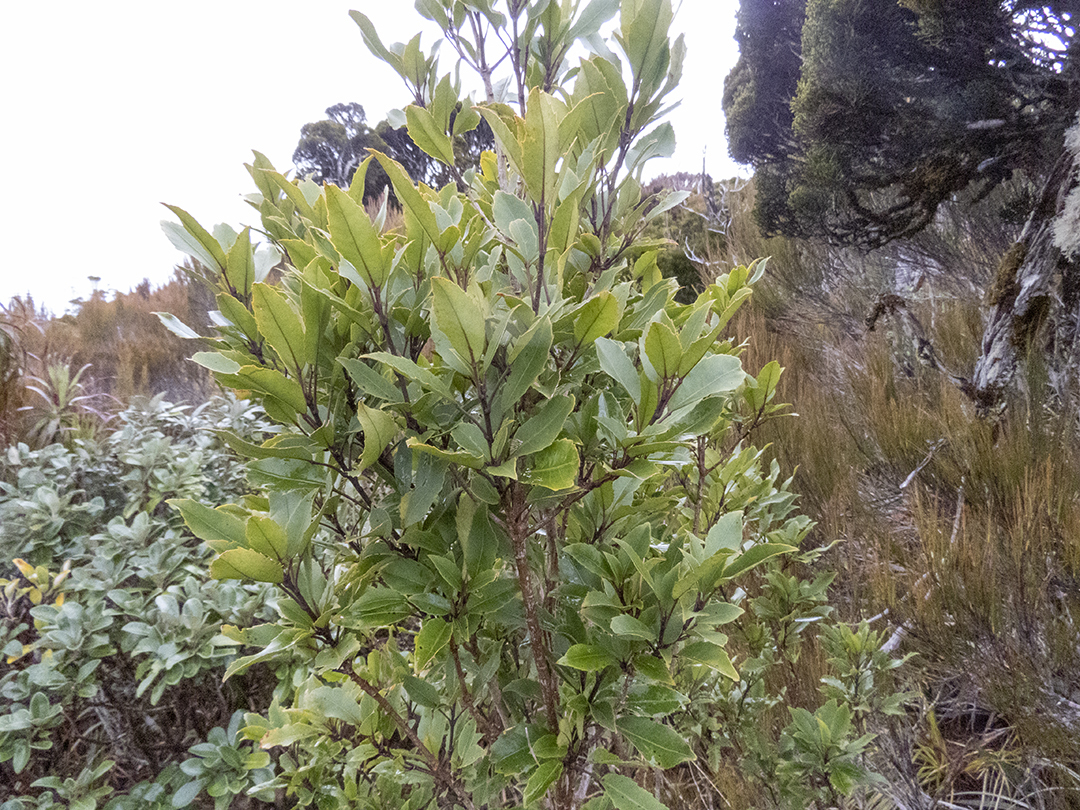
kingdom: Plantae
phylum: Tracheophyta
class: Magnoliopsida
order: Apiales
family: Araliaceae
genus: Raukaua
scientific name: Raukaua simplex
